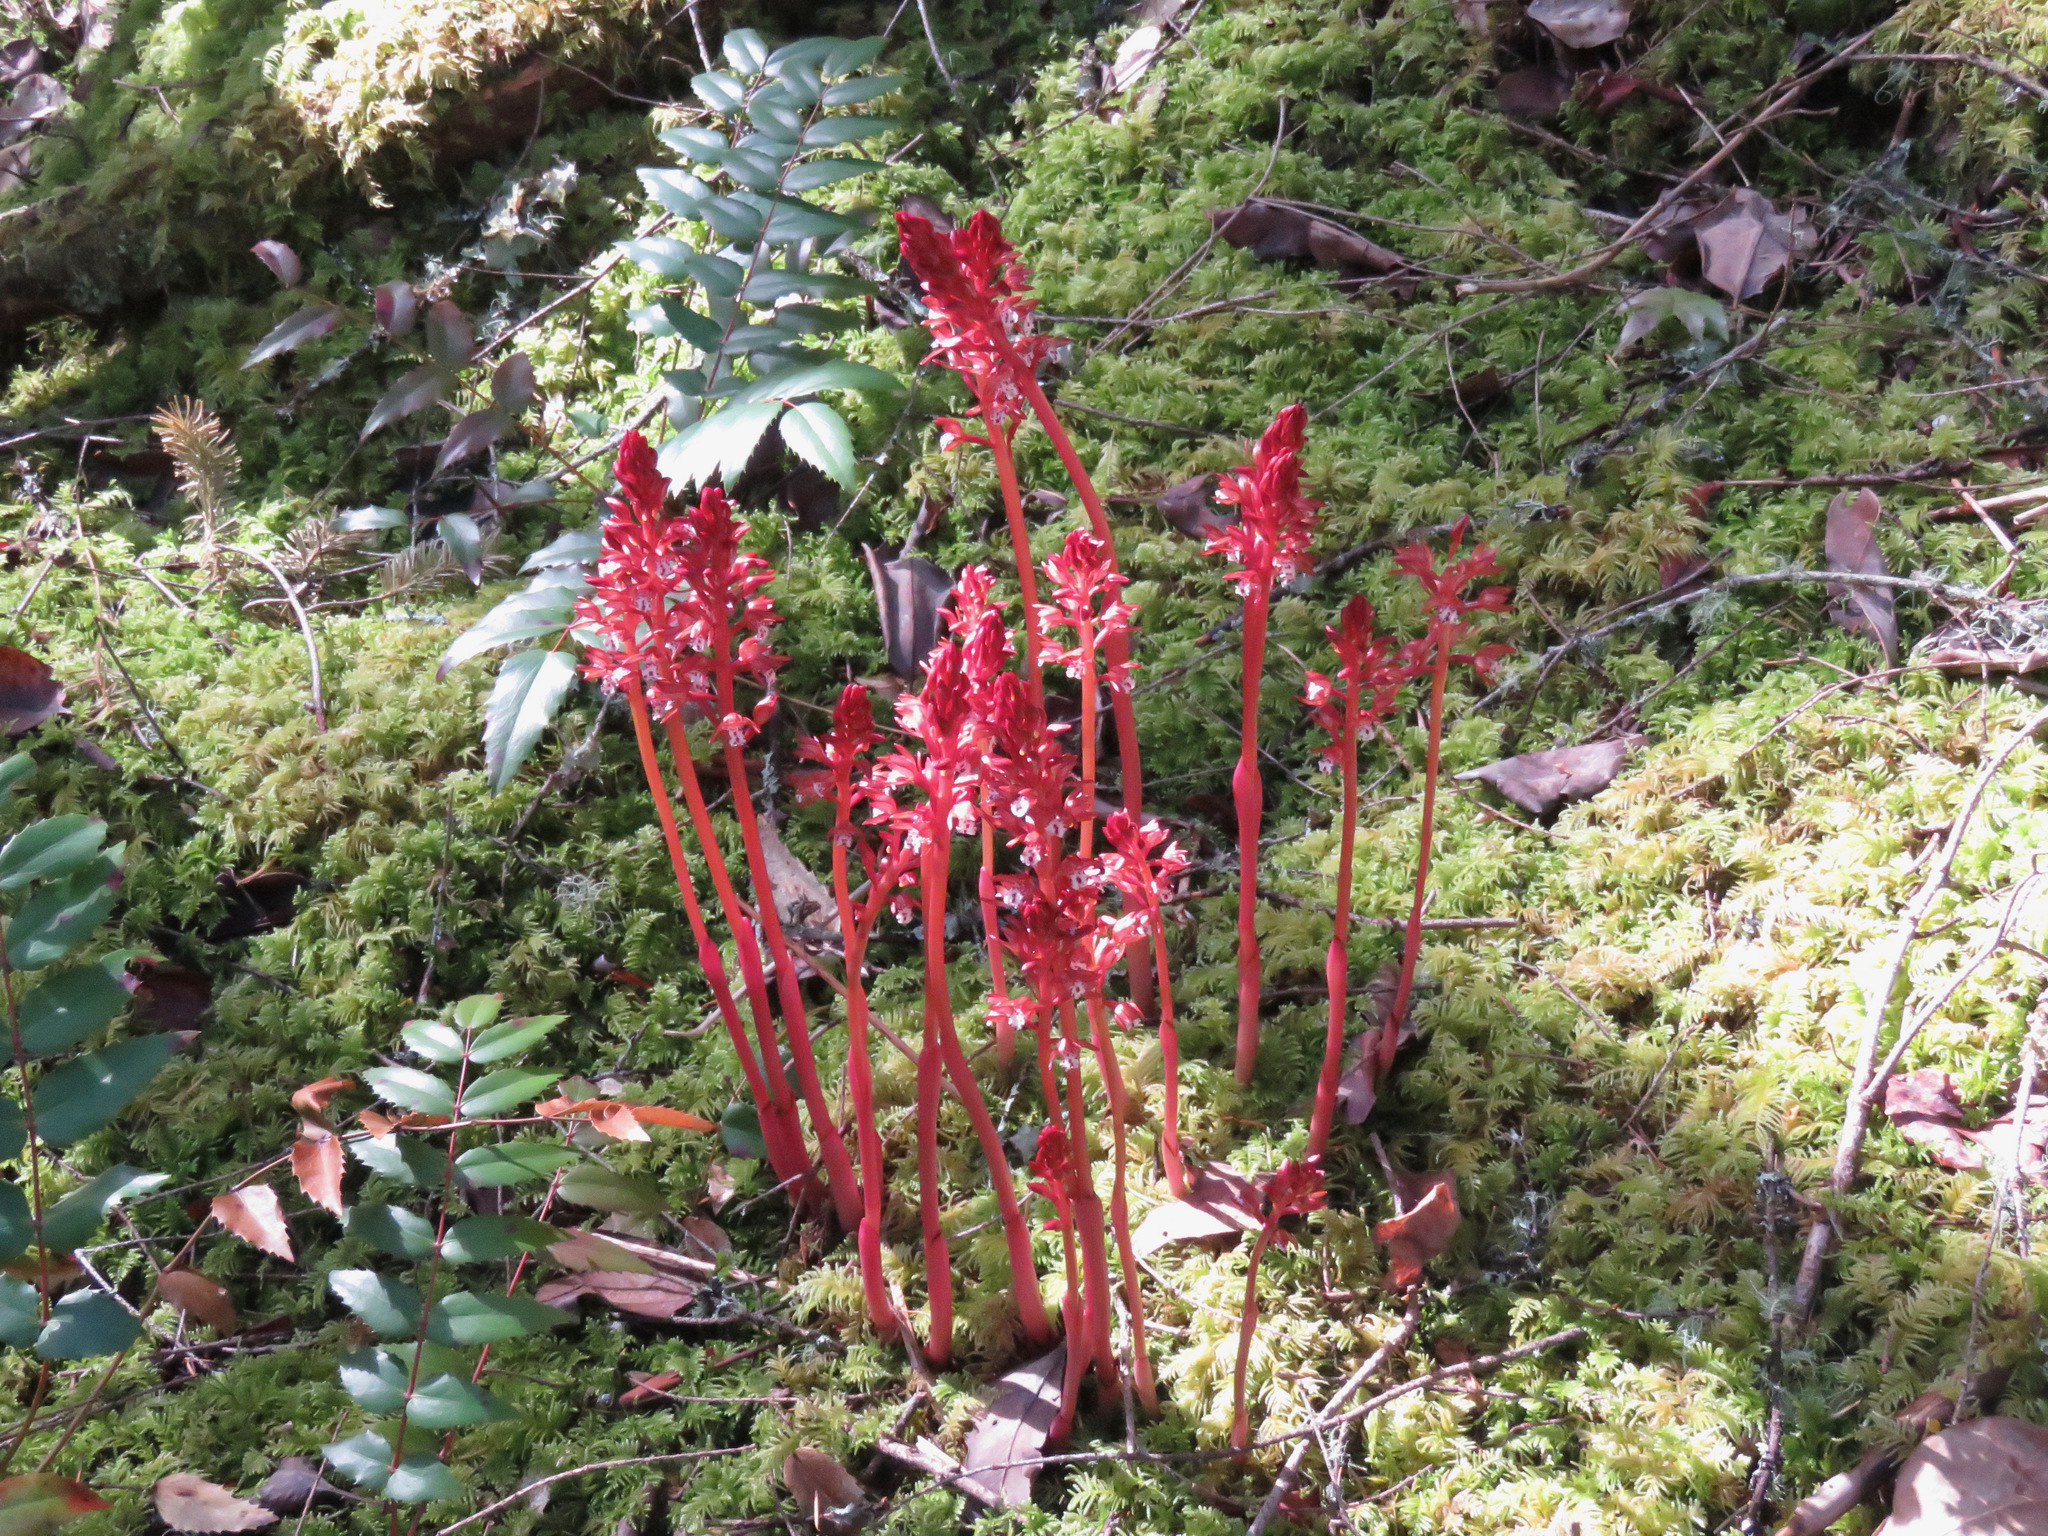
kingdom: Plantae
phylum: Tracheophyta
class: Liliopsida
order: Asparagales
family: Orchidaceae
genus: Corallorhiza
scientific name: Corallorhiza maculata
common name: Spotted coralroot
